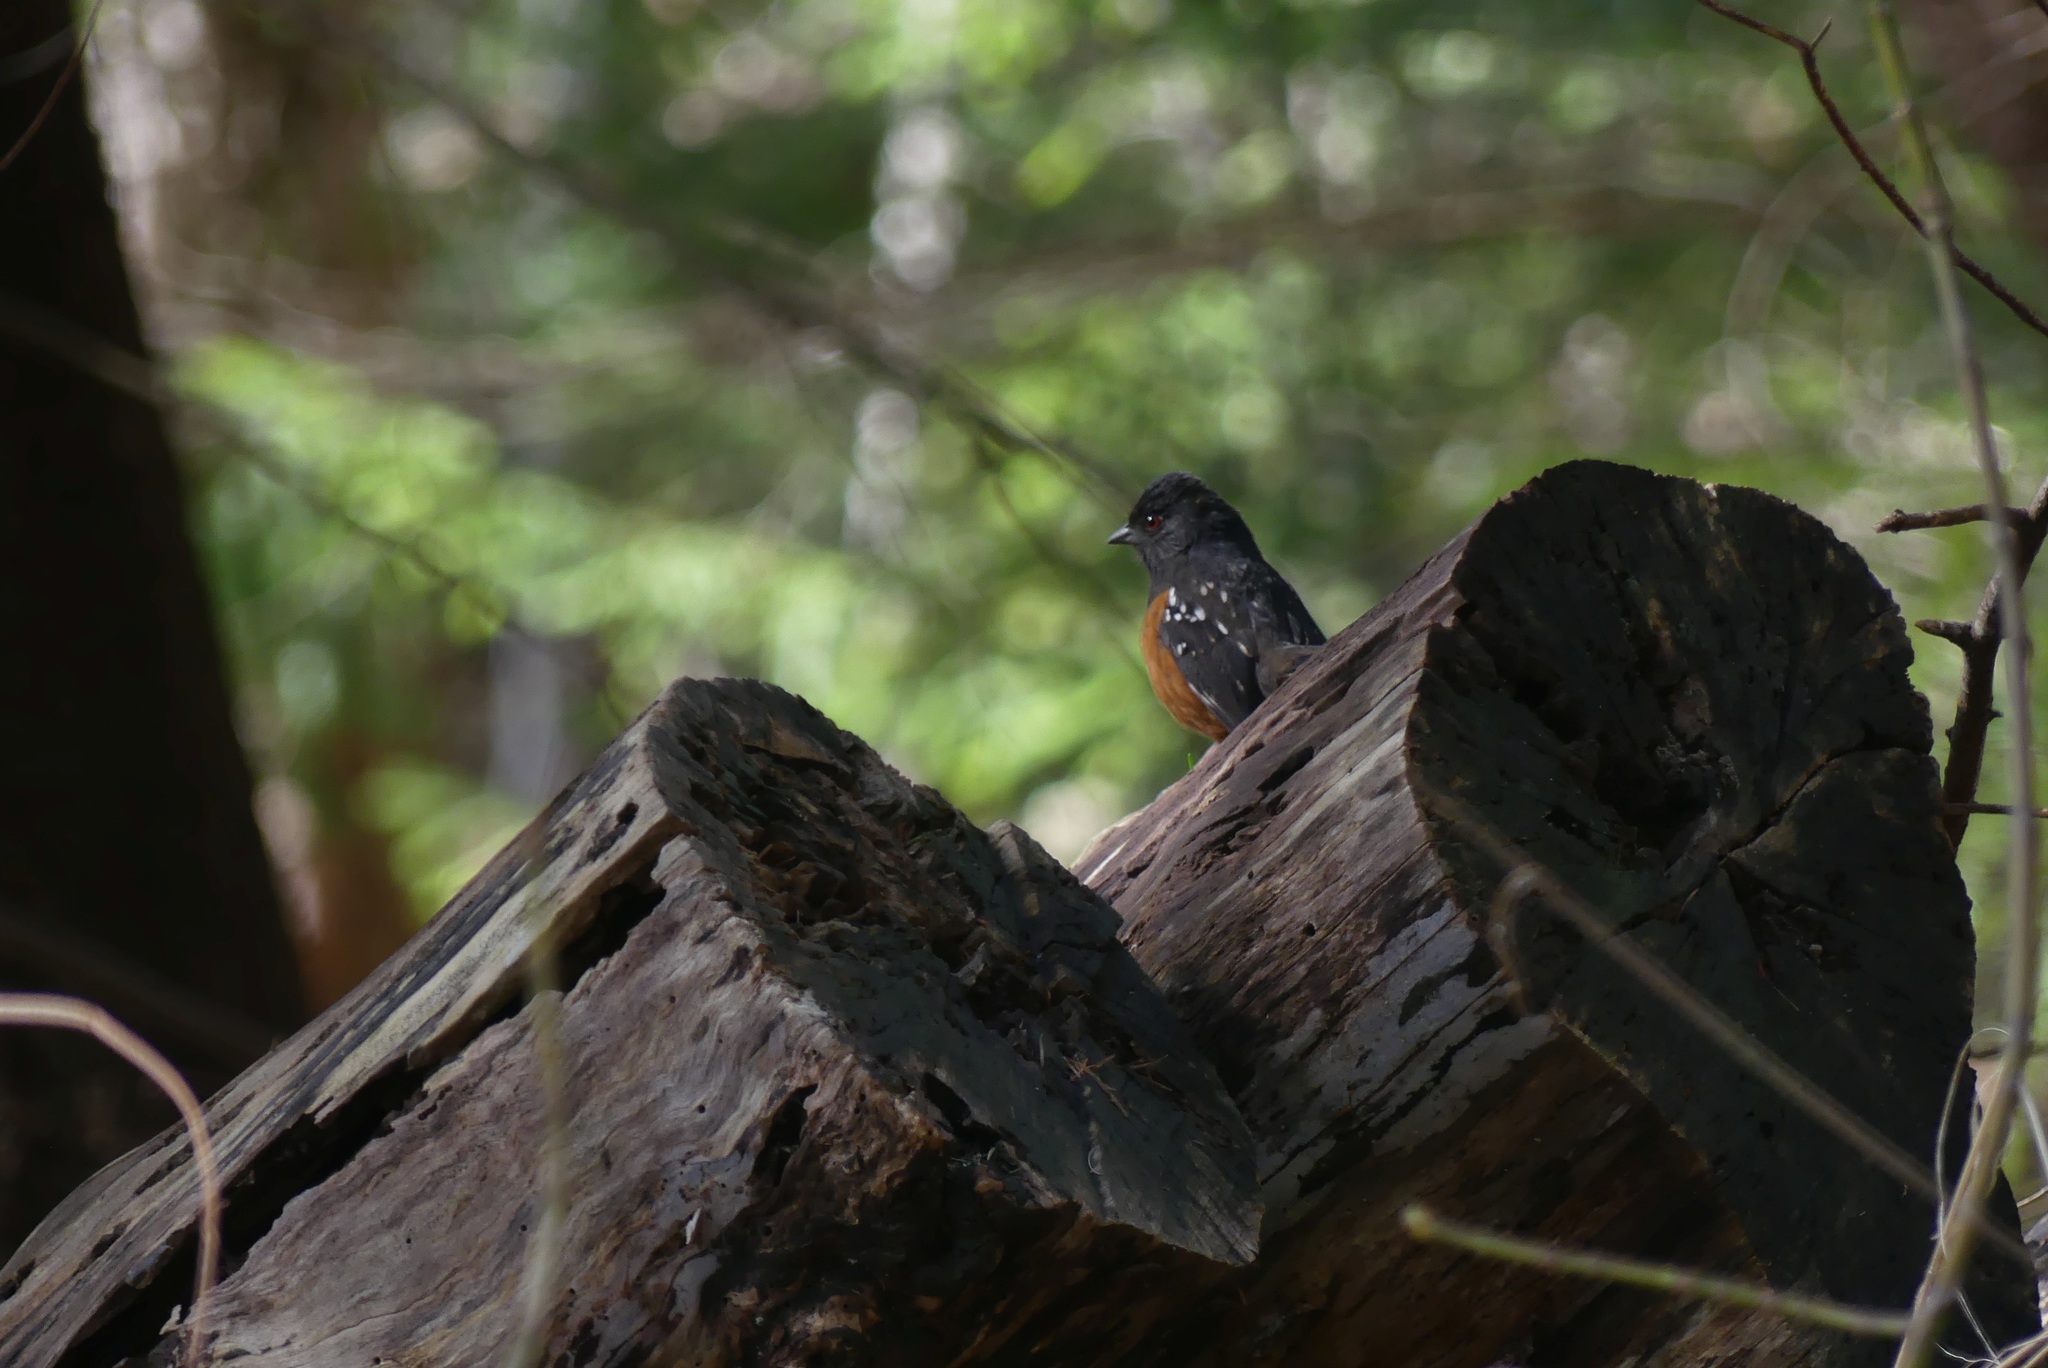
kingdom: Animalia
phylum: Chordata
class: Aves
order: Passeriformes
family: Passerellidae
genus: Pipilo
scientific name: Pipilo maculatus
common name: Spotted towhee
